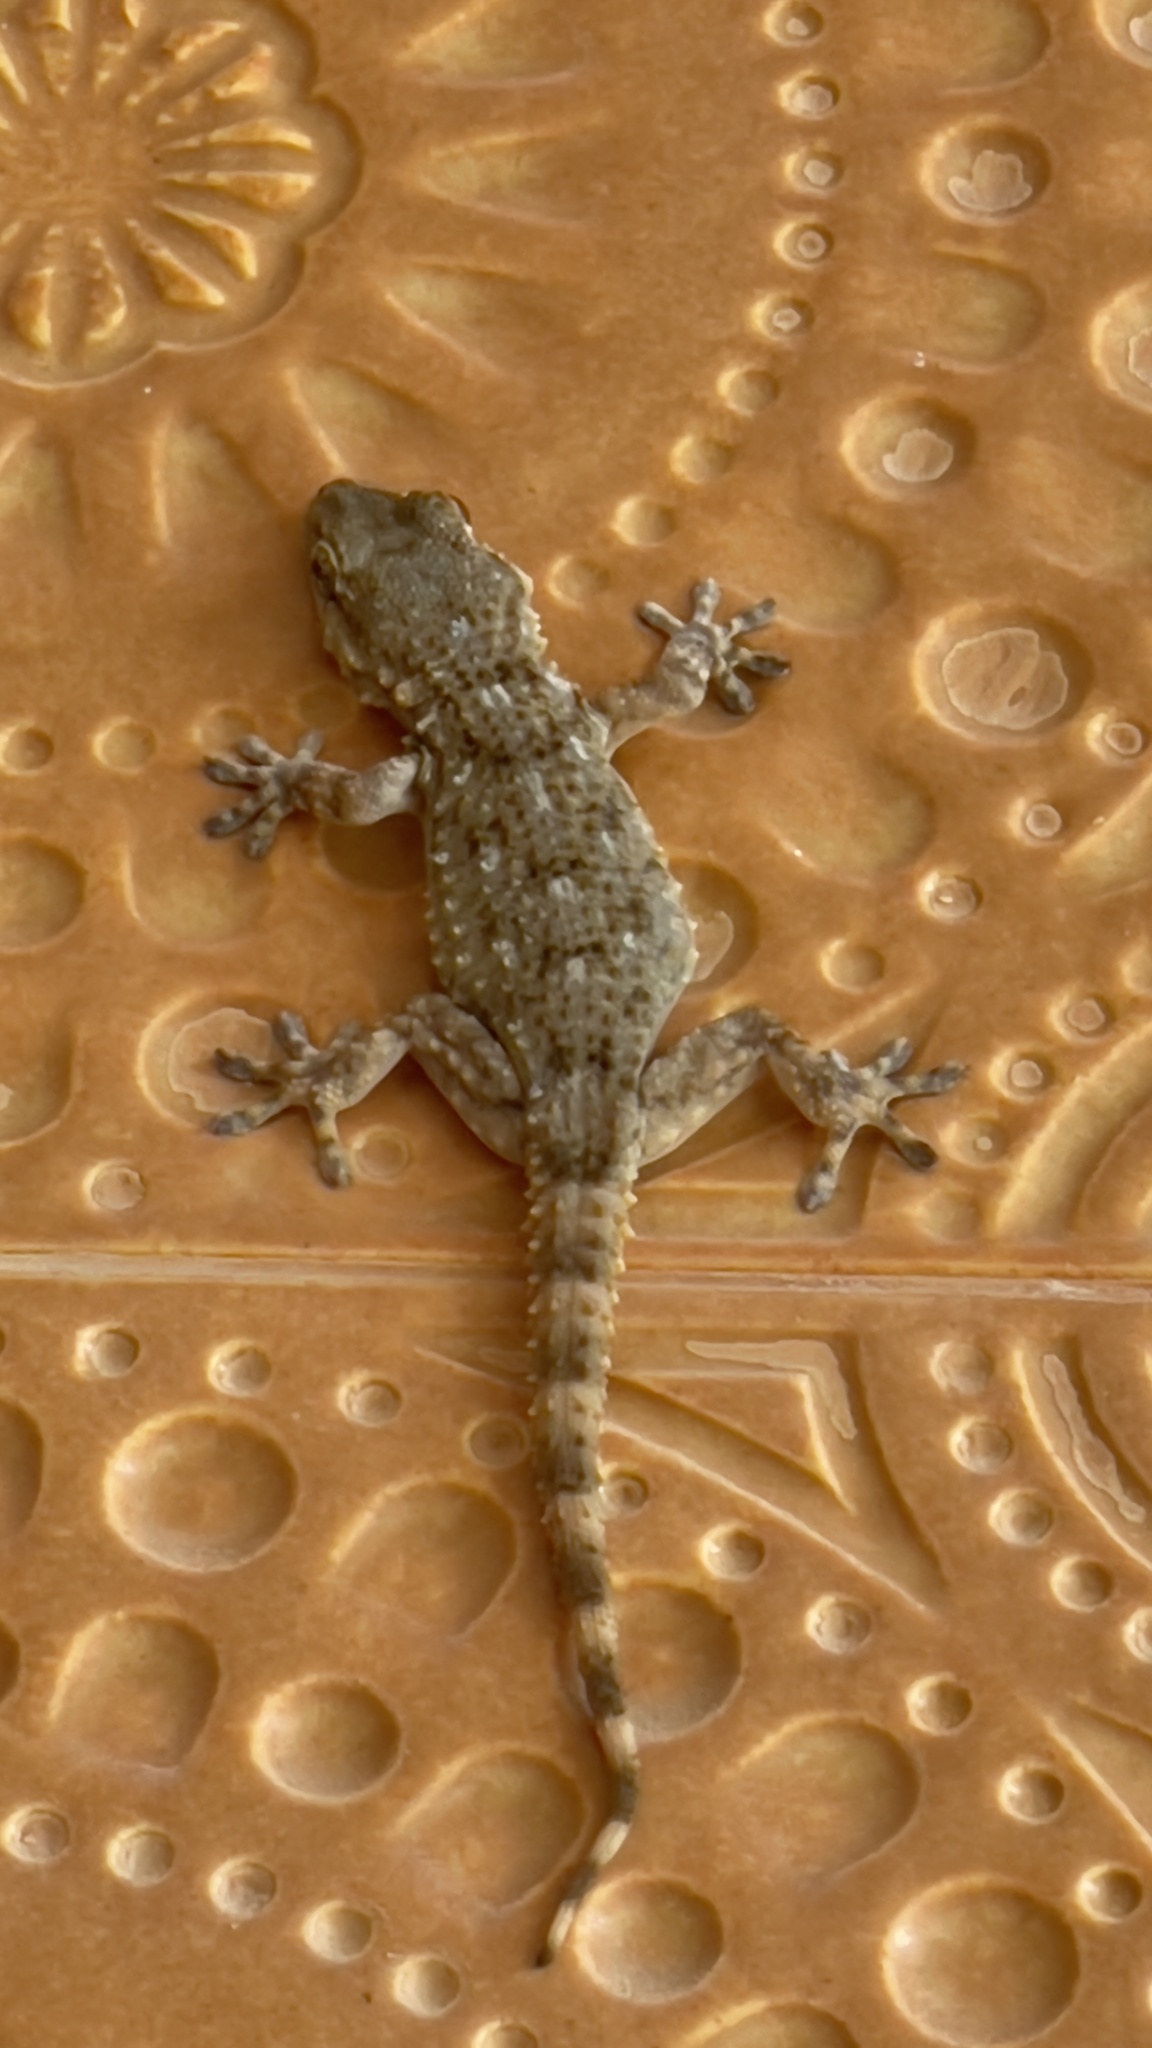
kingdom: Animalia
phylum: Chordata
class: Squamata
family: Phyllodactylidae
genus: Tarentola
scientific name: Tarentola mauritanica
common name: Moorish gecko
